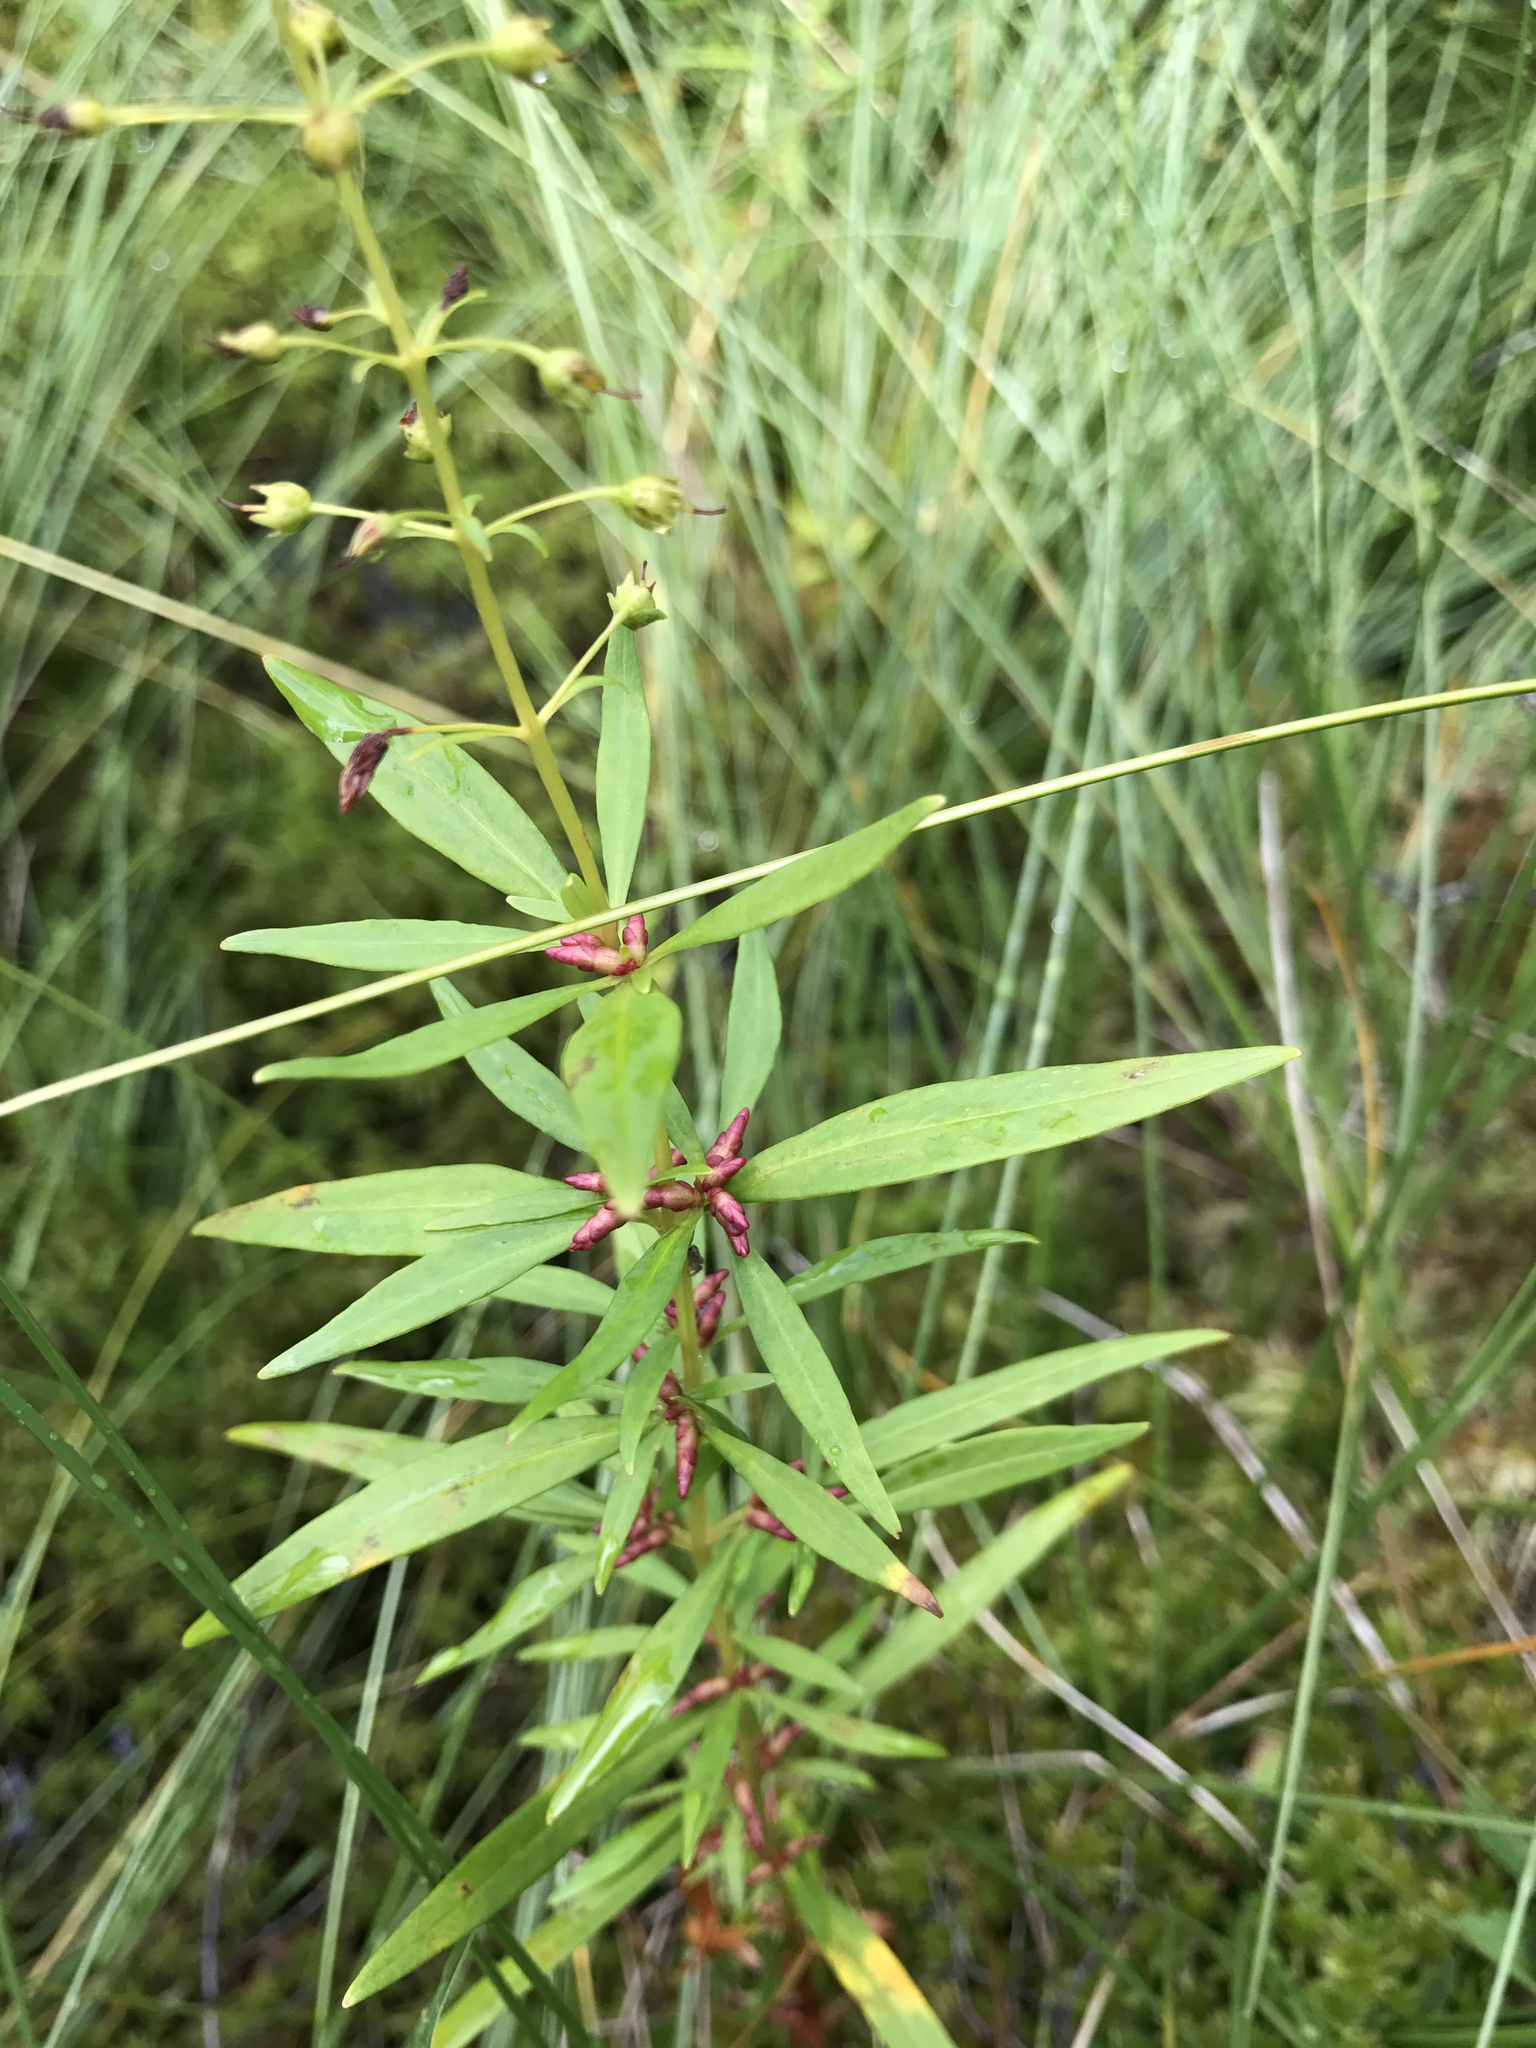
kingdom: Plantae
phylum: Tracheophyta
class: Magnoliopsida
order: Ericales
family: Primulaceae
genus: Lysimachia
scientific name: Lysimachia terrestris
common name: Lake loosestrife
